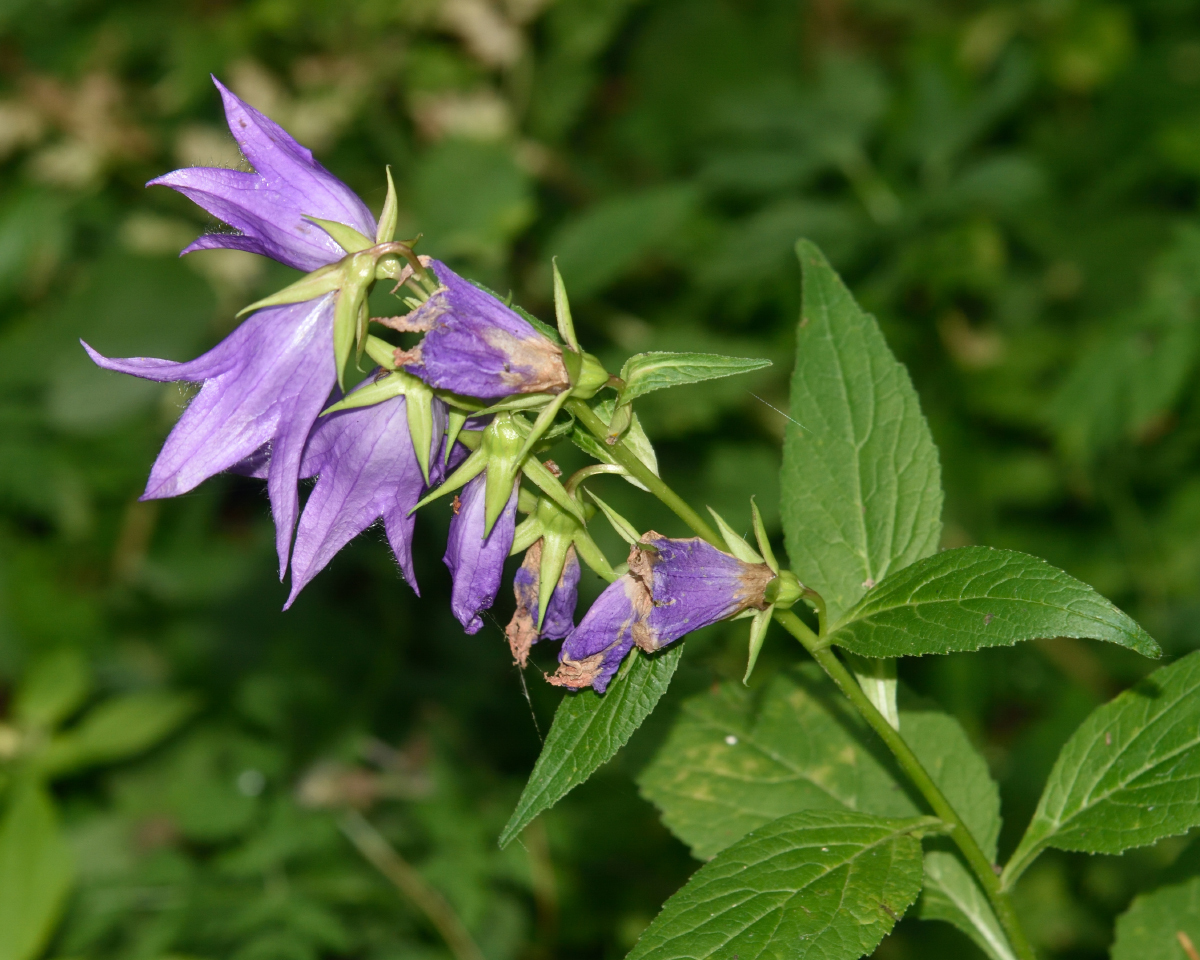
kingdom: Plantae
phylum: Tracheophyta
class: Magnoliopsida
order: Asterales
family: Campanulaceae
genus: Campanula
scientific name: Campanula latifolia
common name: Giant bellflower
